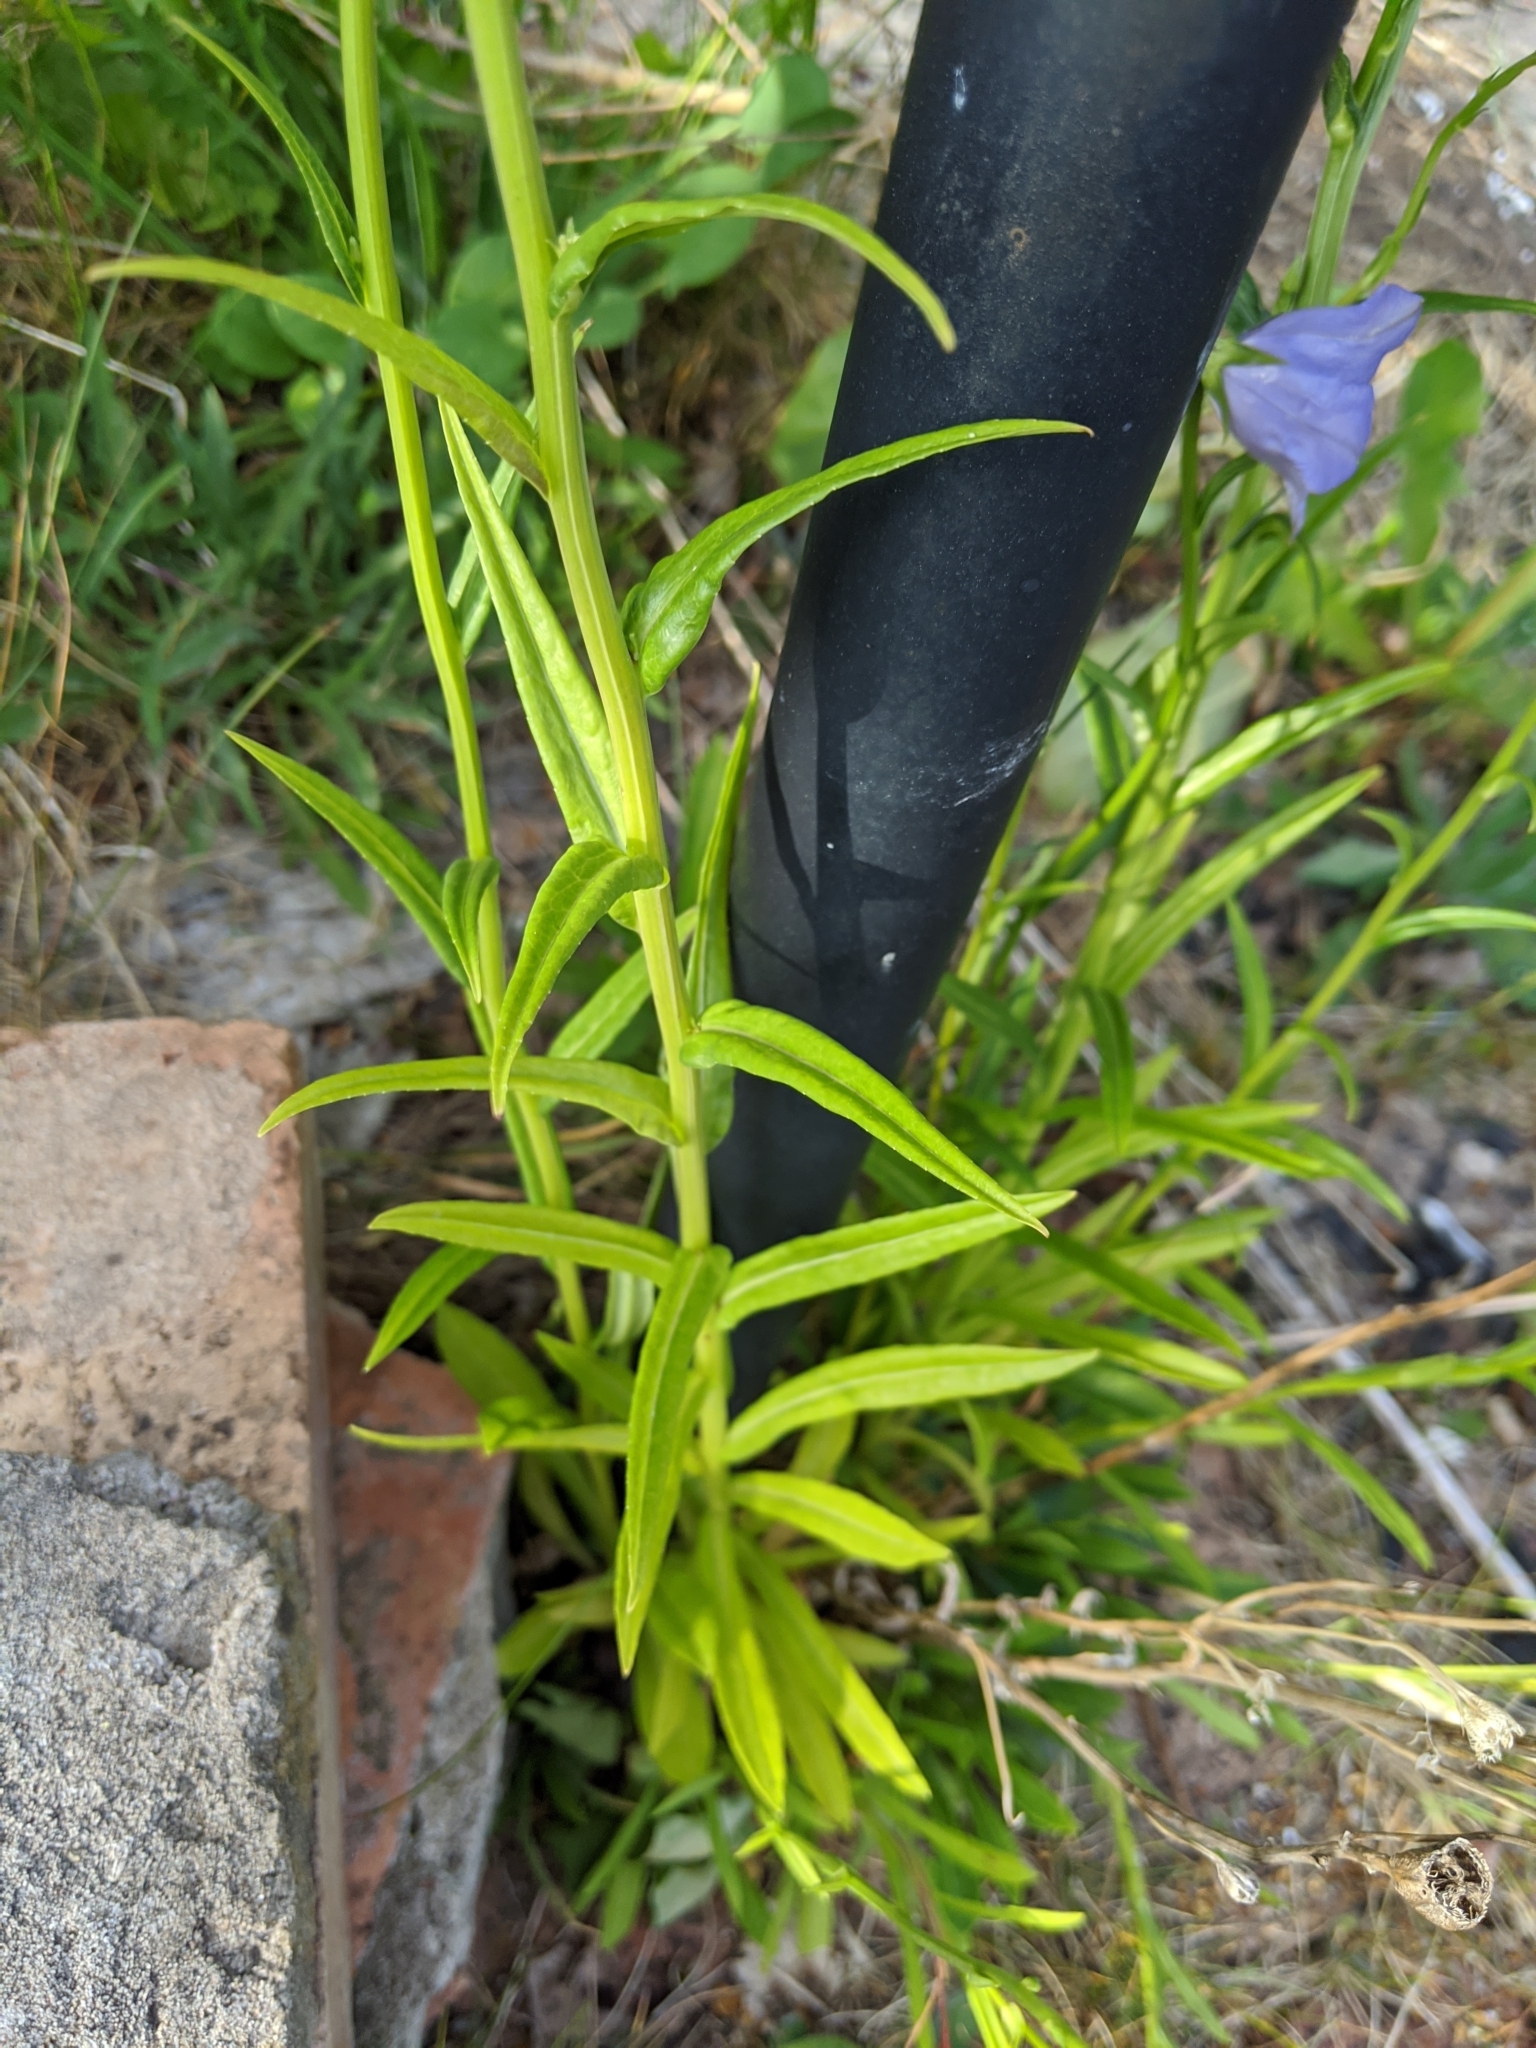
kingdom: Plantae
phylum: Tracheophyta
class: Magnoliopsida
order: Asterales
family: Campanulaceae
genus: Campanula
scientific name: Campanula persicifolia
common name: Peach-leaved bellflower
